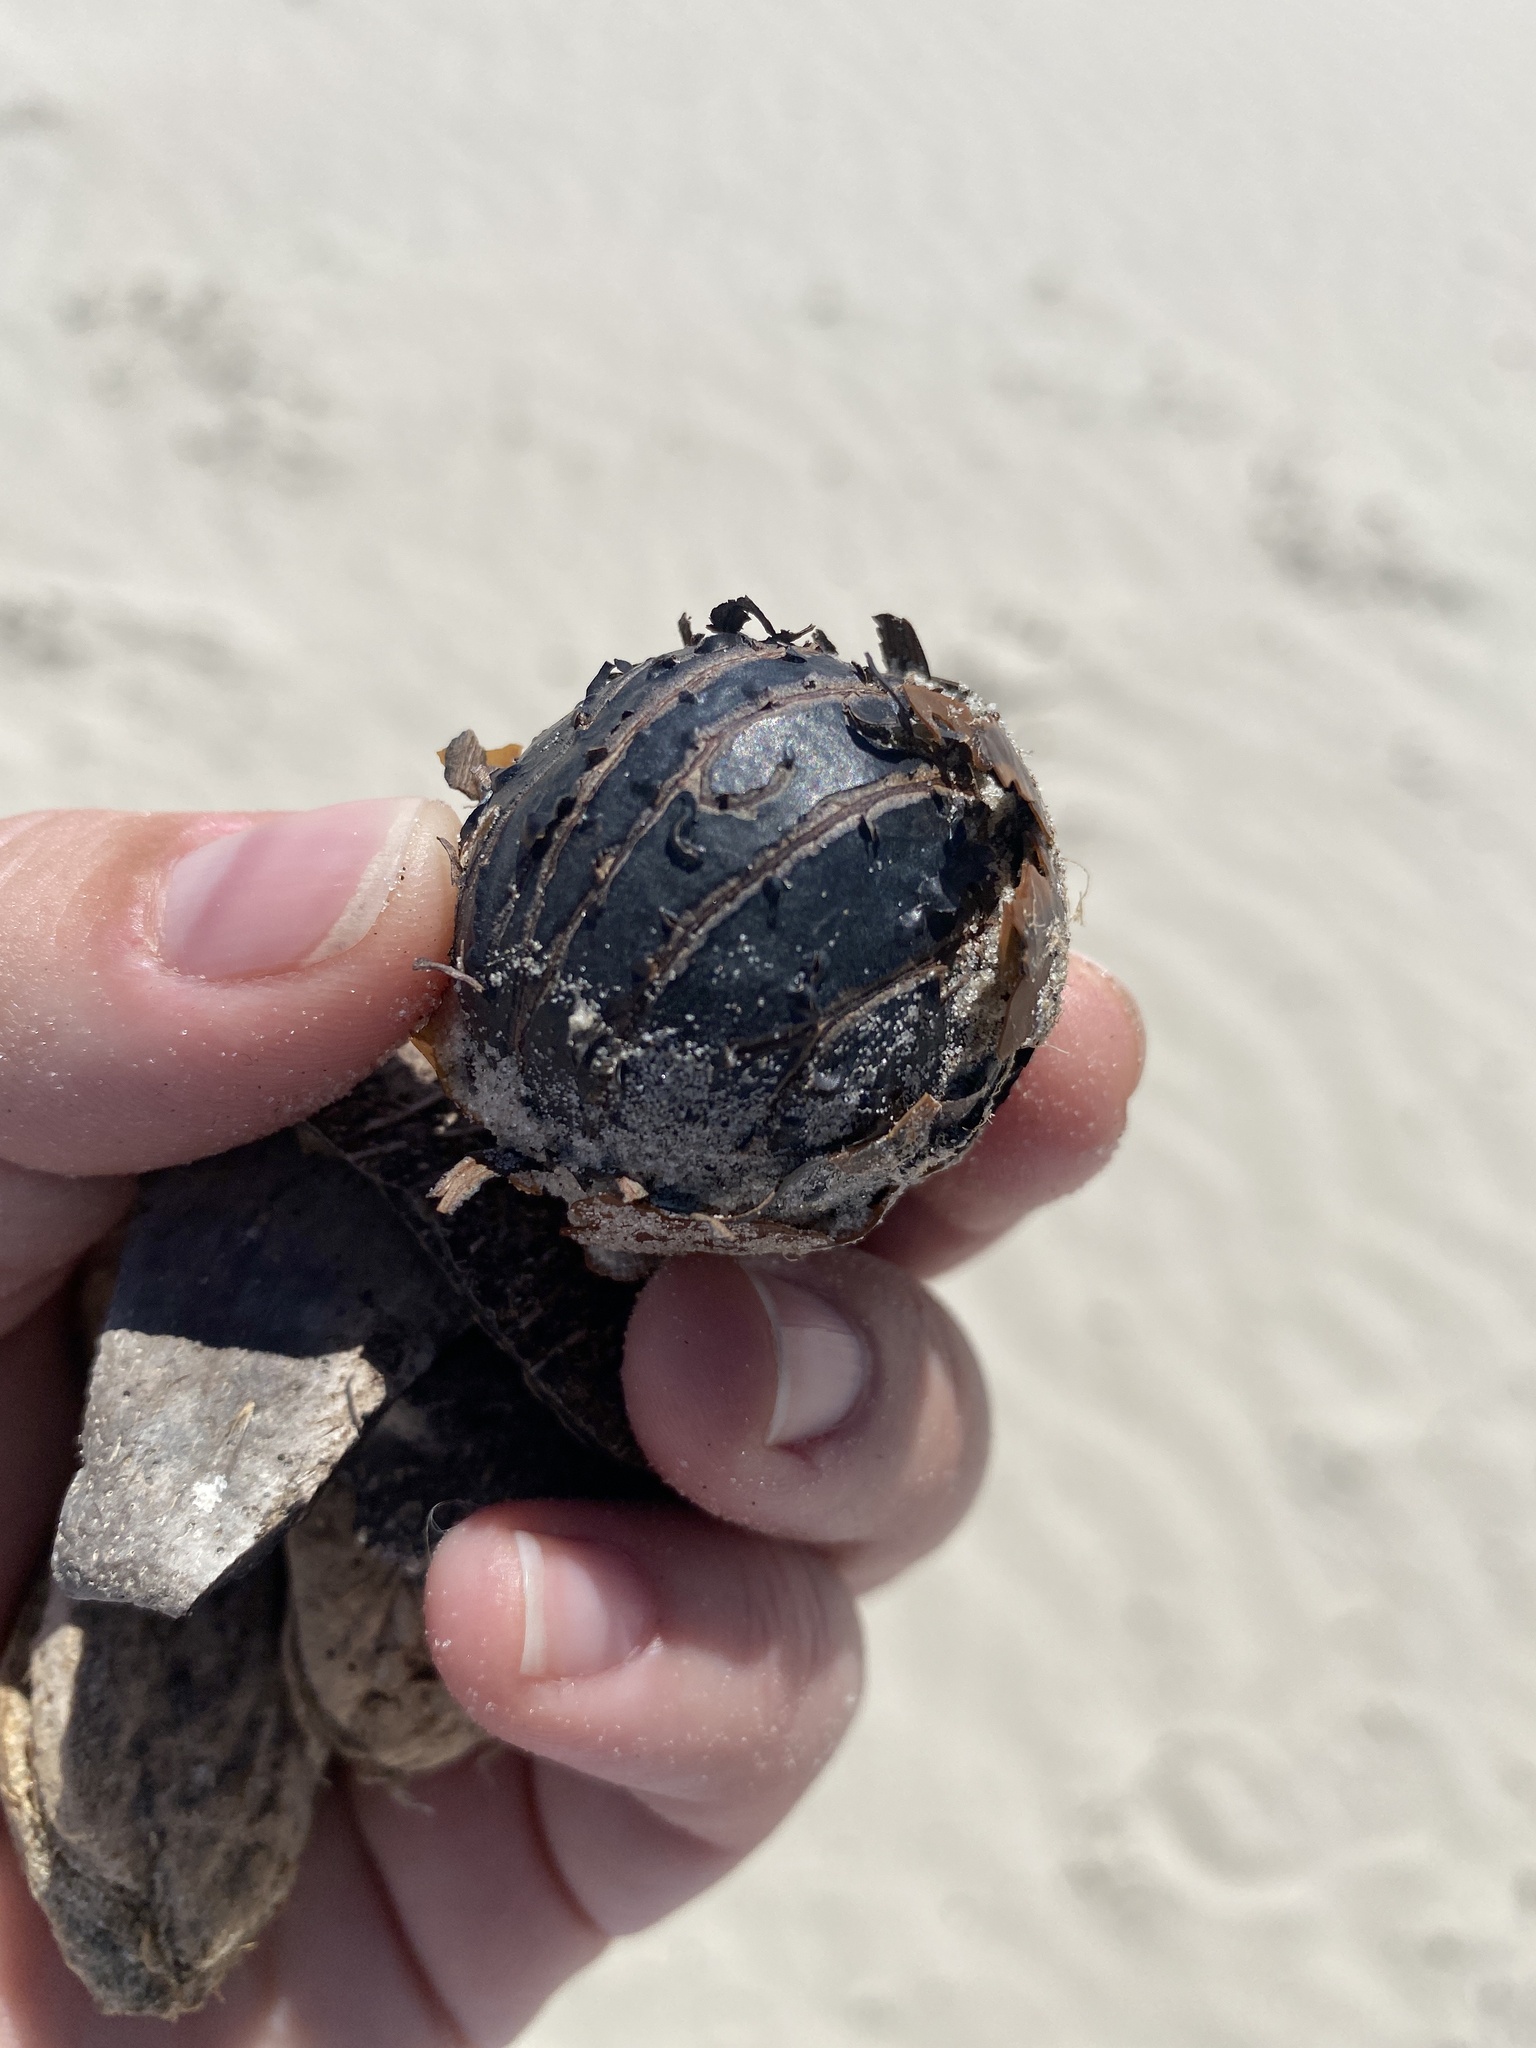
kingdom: Plantae
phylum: Tracheophyta
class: Liliopsida
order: Arecales
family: Arecaceae
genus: Manicaria
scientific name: Manicaria saccifera
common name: Sea coconut
